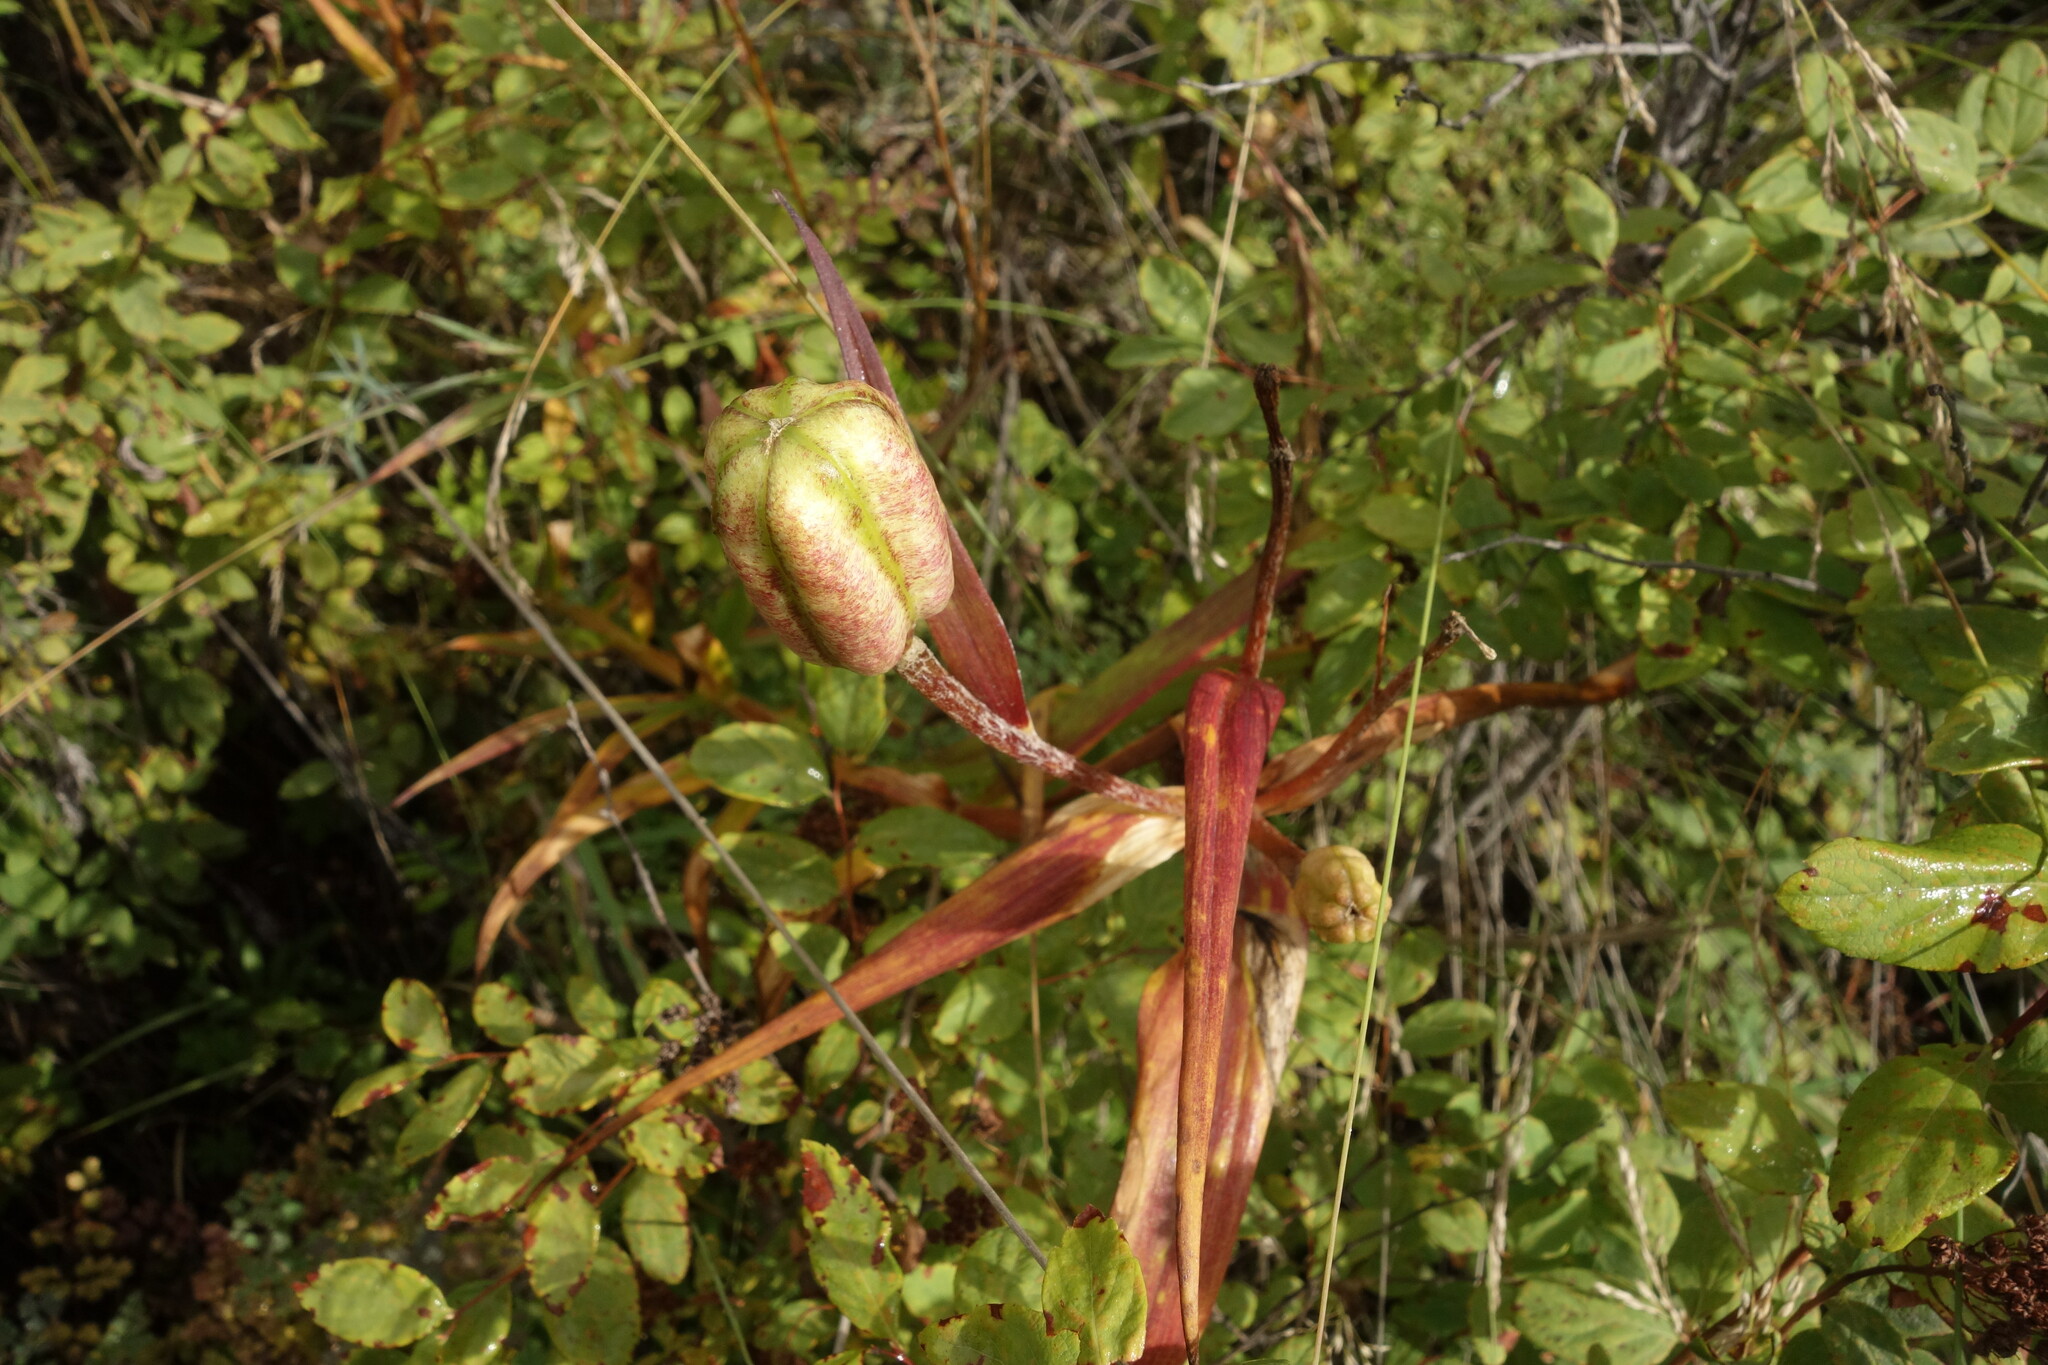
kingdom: Plantae
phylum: Tracheophyta
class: Liliopsida
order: Liliales
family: Liliaceae
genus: Lilium
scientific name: Lilium pensylvanicum
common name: Candlestick lily
